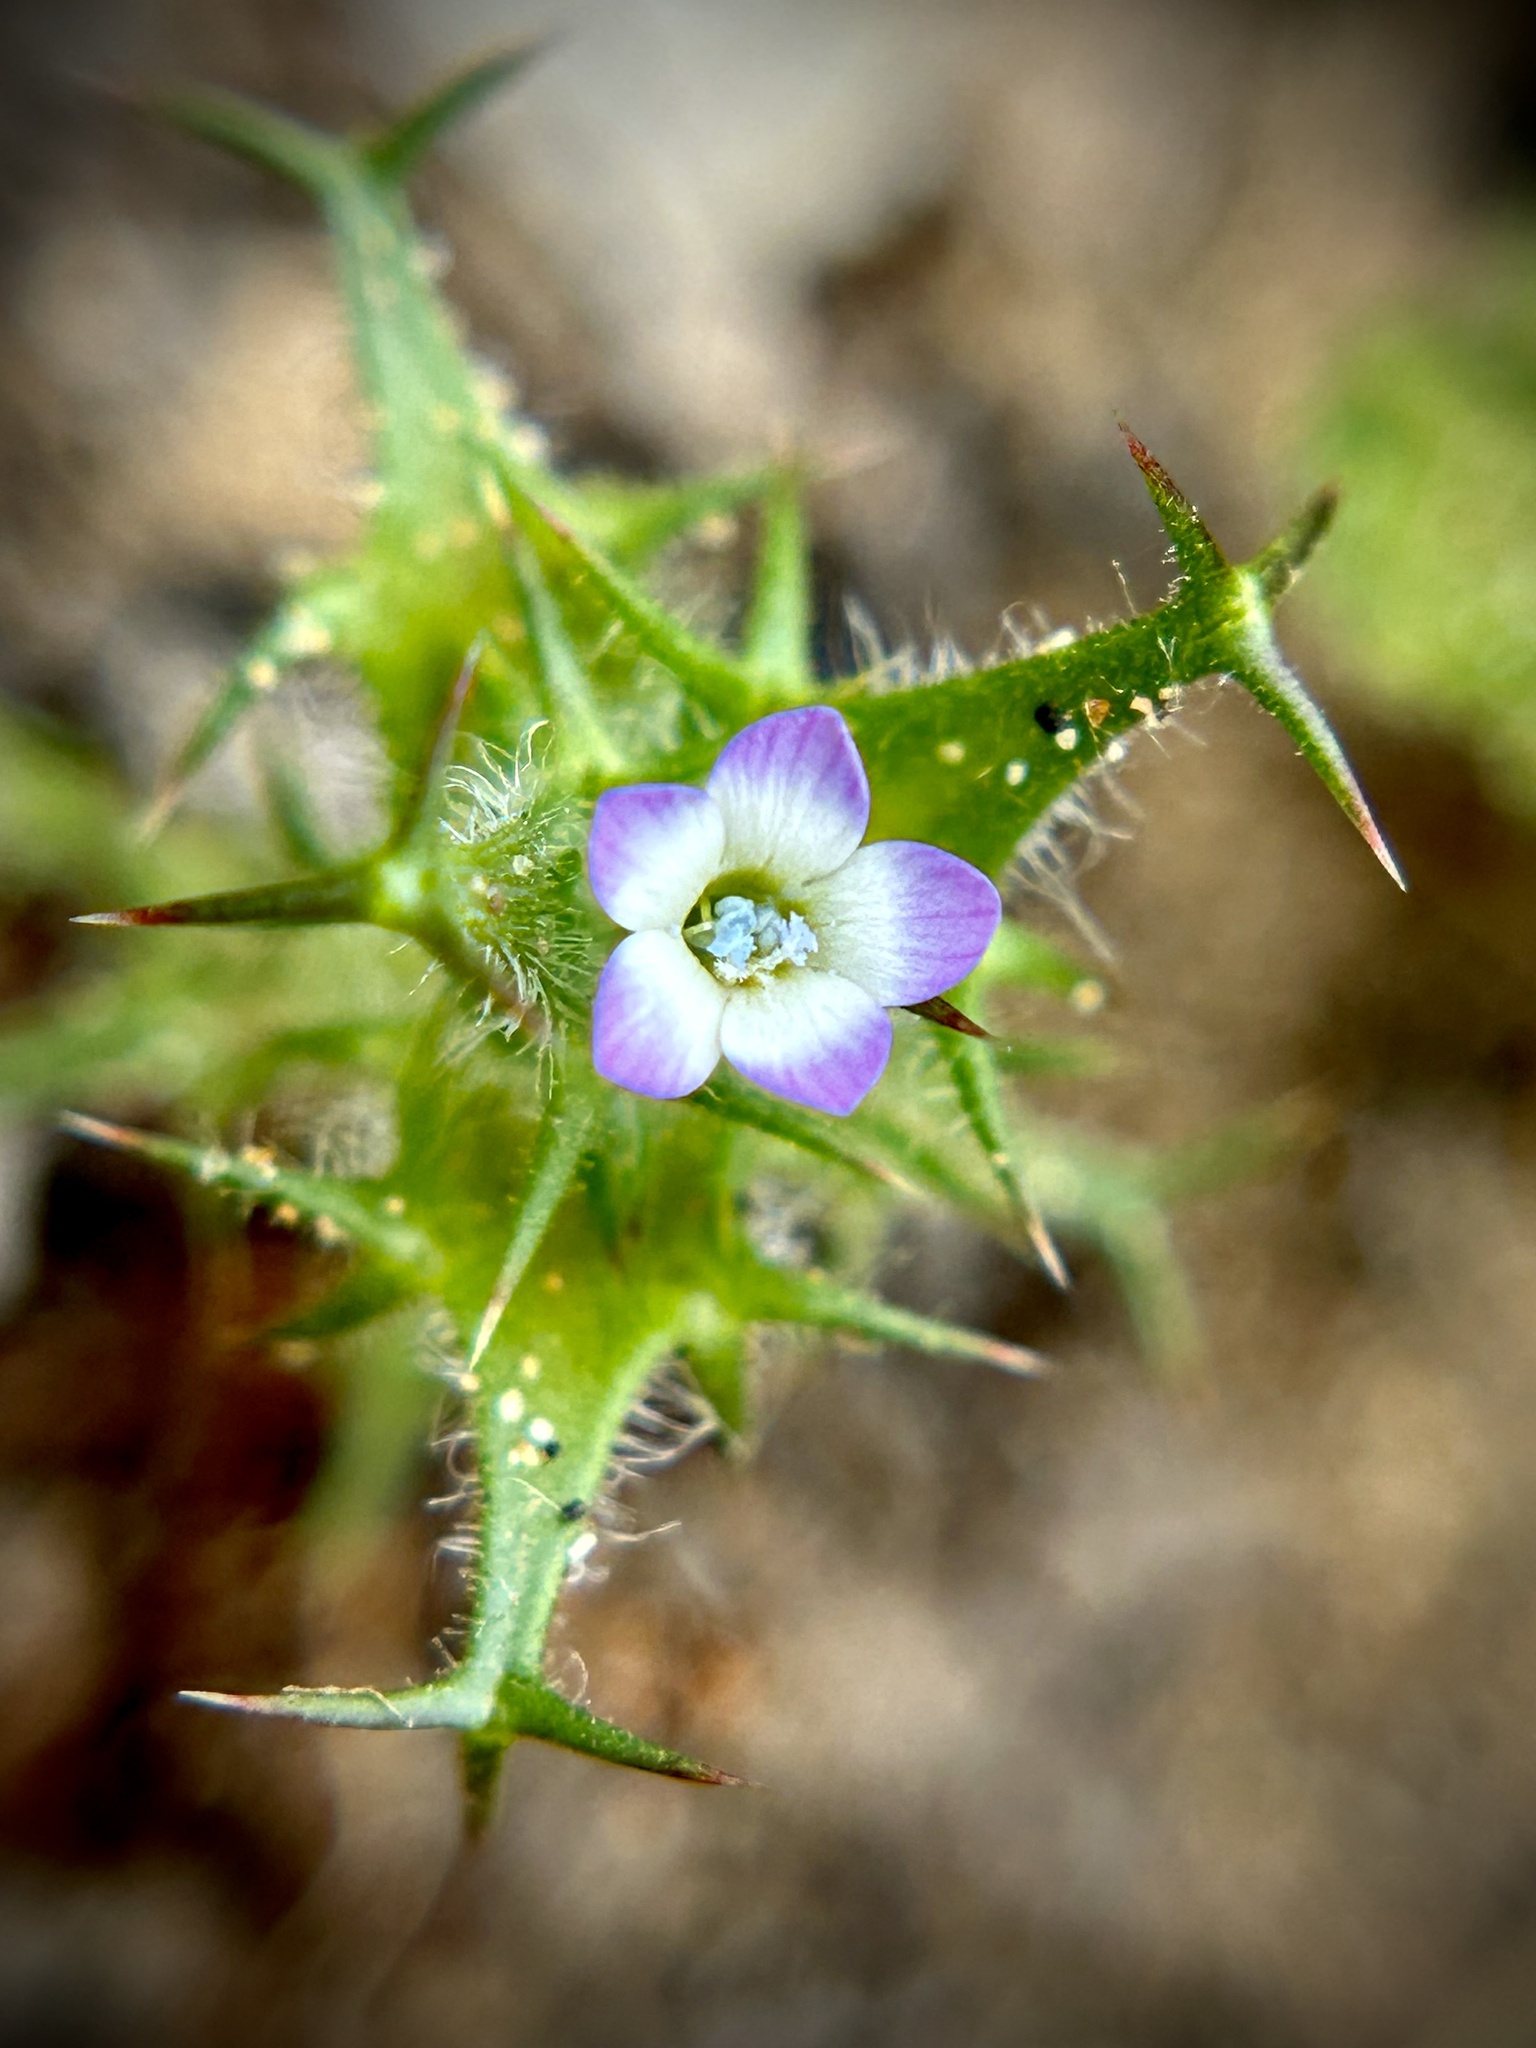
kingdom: Plantae
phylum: Tracheophyta
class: Magnoliopsida
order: Ericales
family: Polemoniaceae
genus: Navarretia
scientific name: Navarretia hamata
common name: Hooked navarretia
